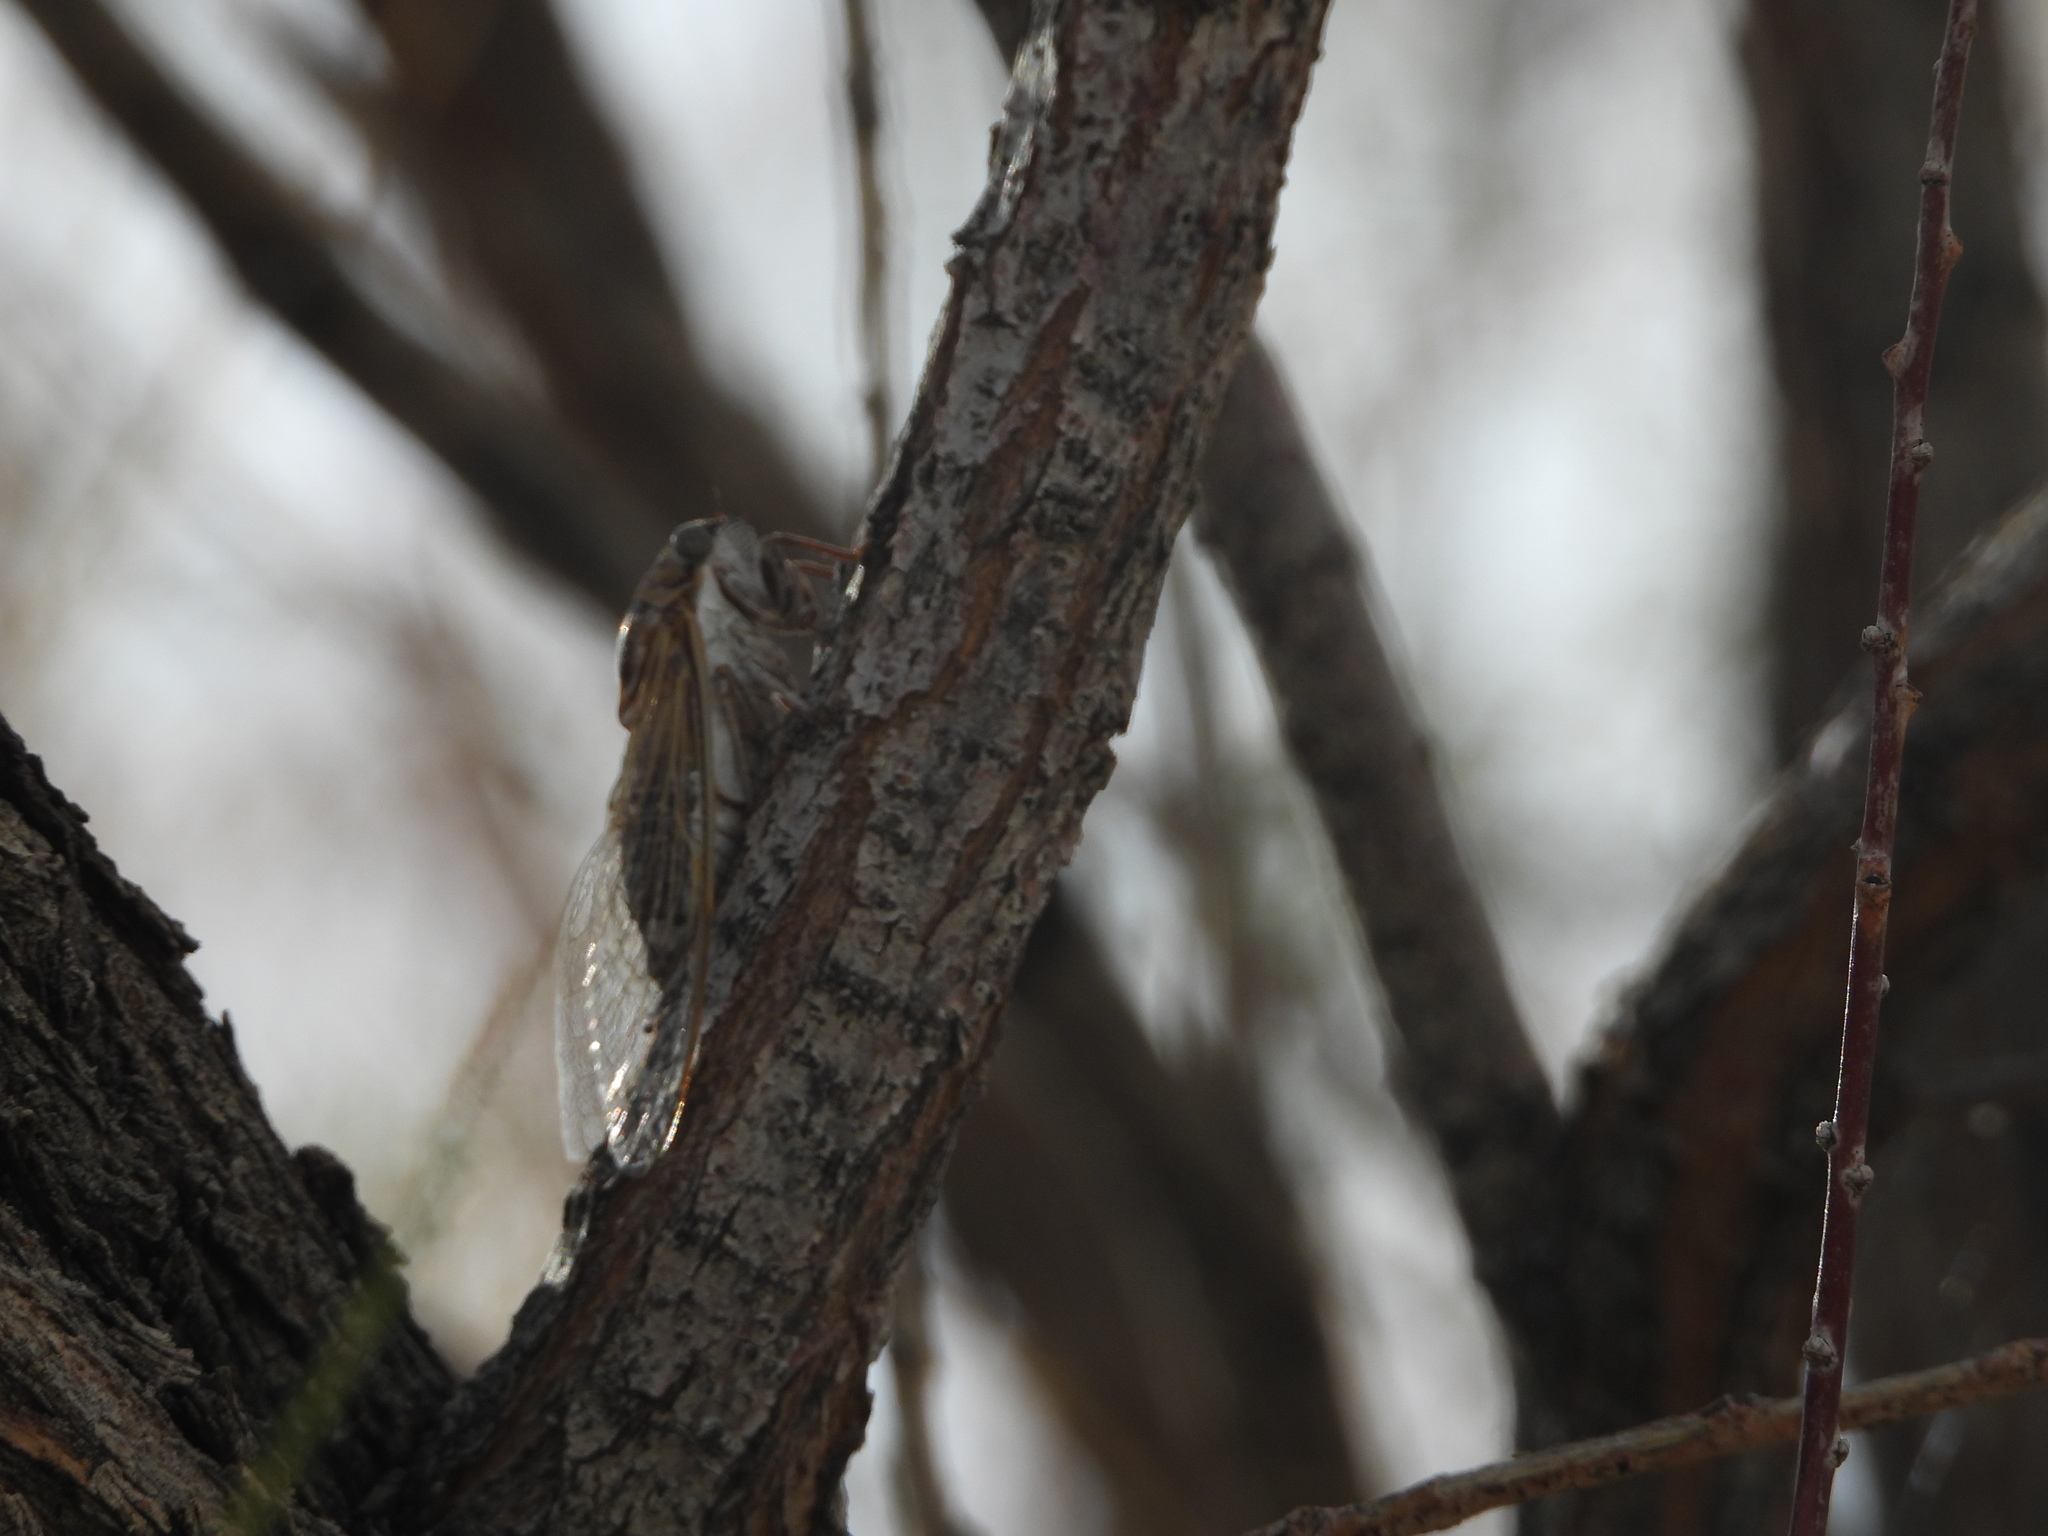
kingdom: Animalia
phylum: Arthropoda
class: Insecta
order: Hemiptera
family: Cicadidae
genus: Diceroprocta
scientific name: Diceroprocta eugraphica
